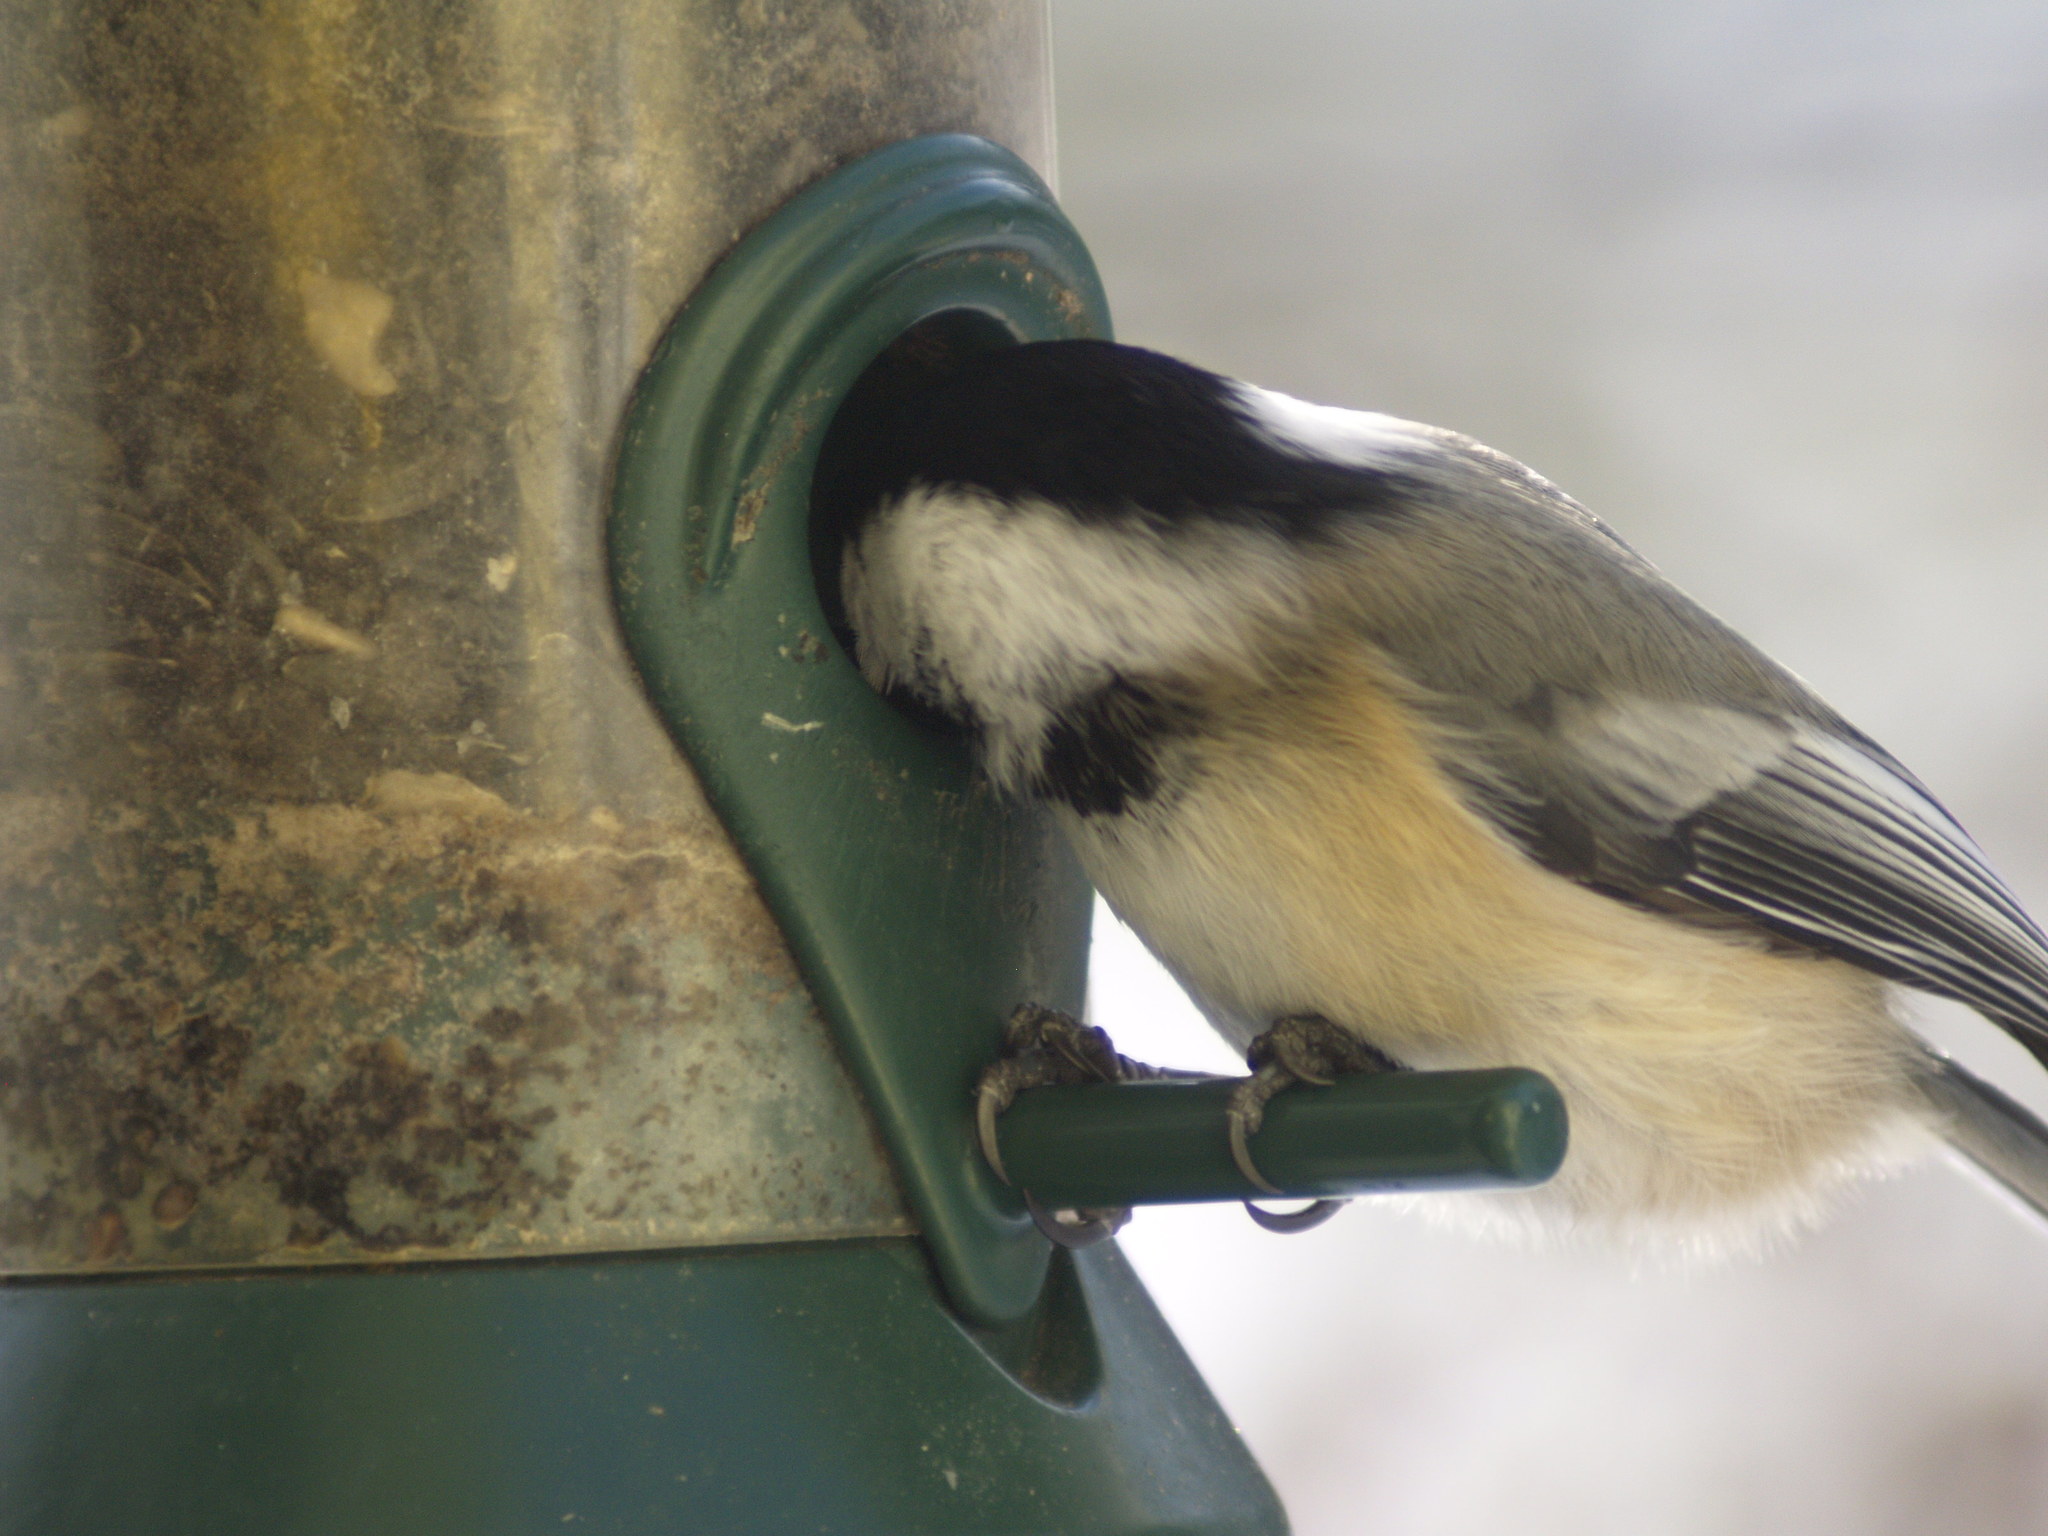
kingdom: Animalia
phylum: Chordata
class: Aves
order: Passeriformes
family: Paridae
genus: Poecile
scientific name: Poecile atricapillus
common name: Black-capped chickadee
